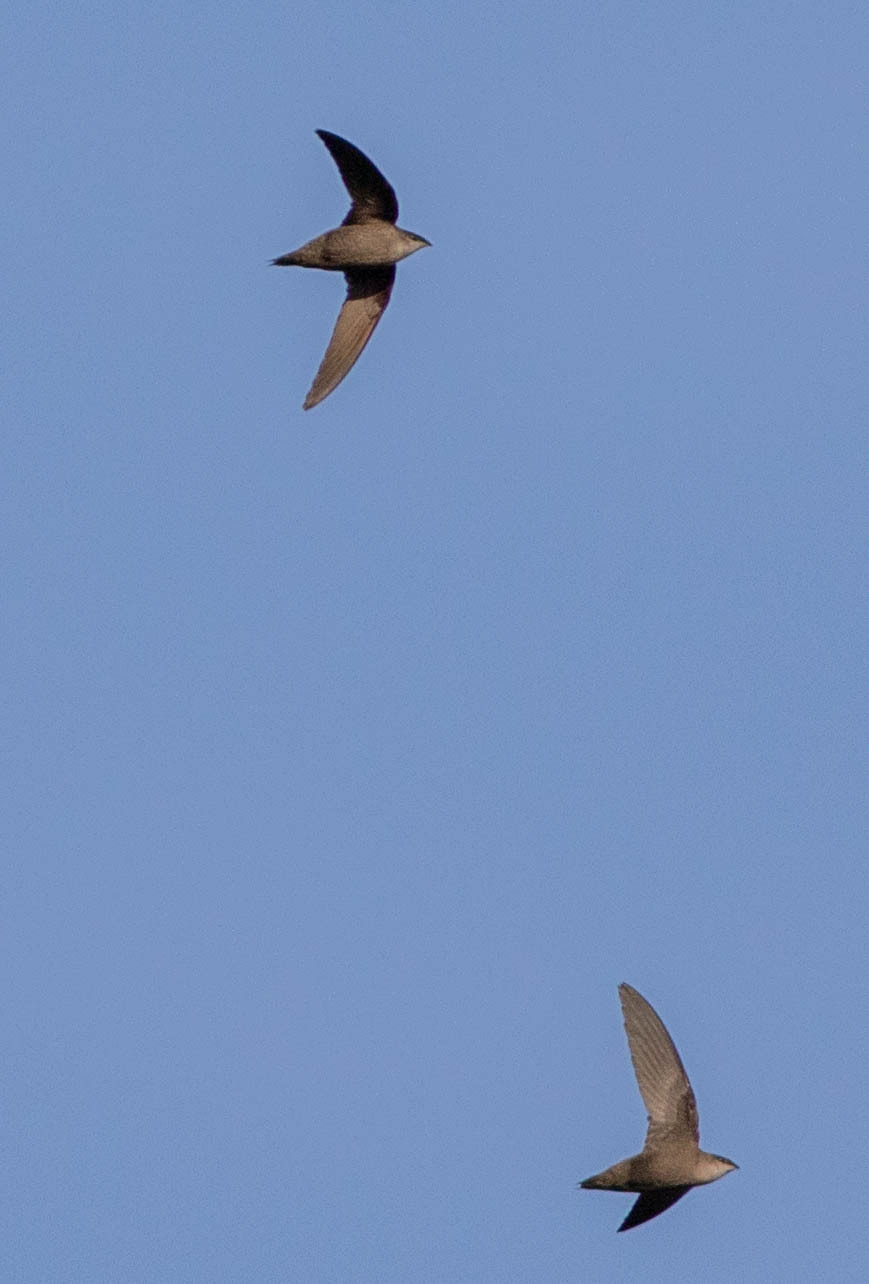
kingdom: Animalia
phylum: Chordata
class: Aves
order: Apodiformes
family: Apodidae
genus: Chaetura
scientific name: Chaetura pelagica
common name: Chimney swift
